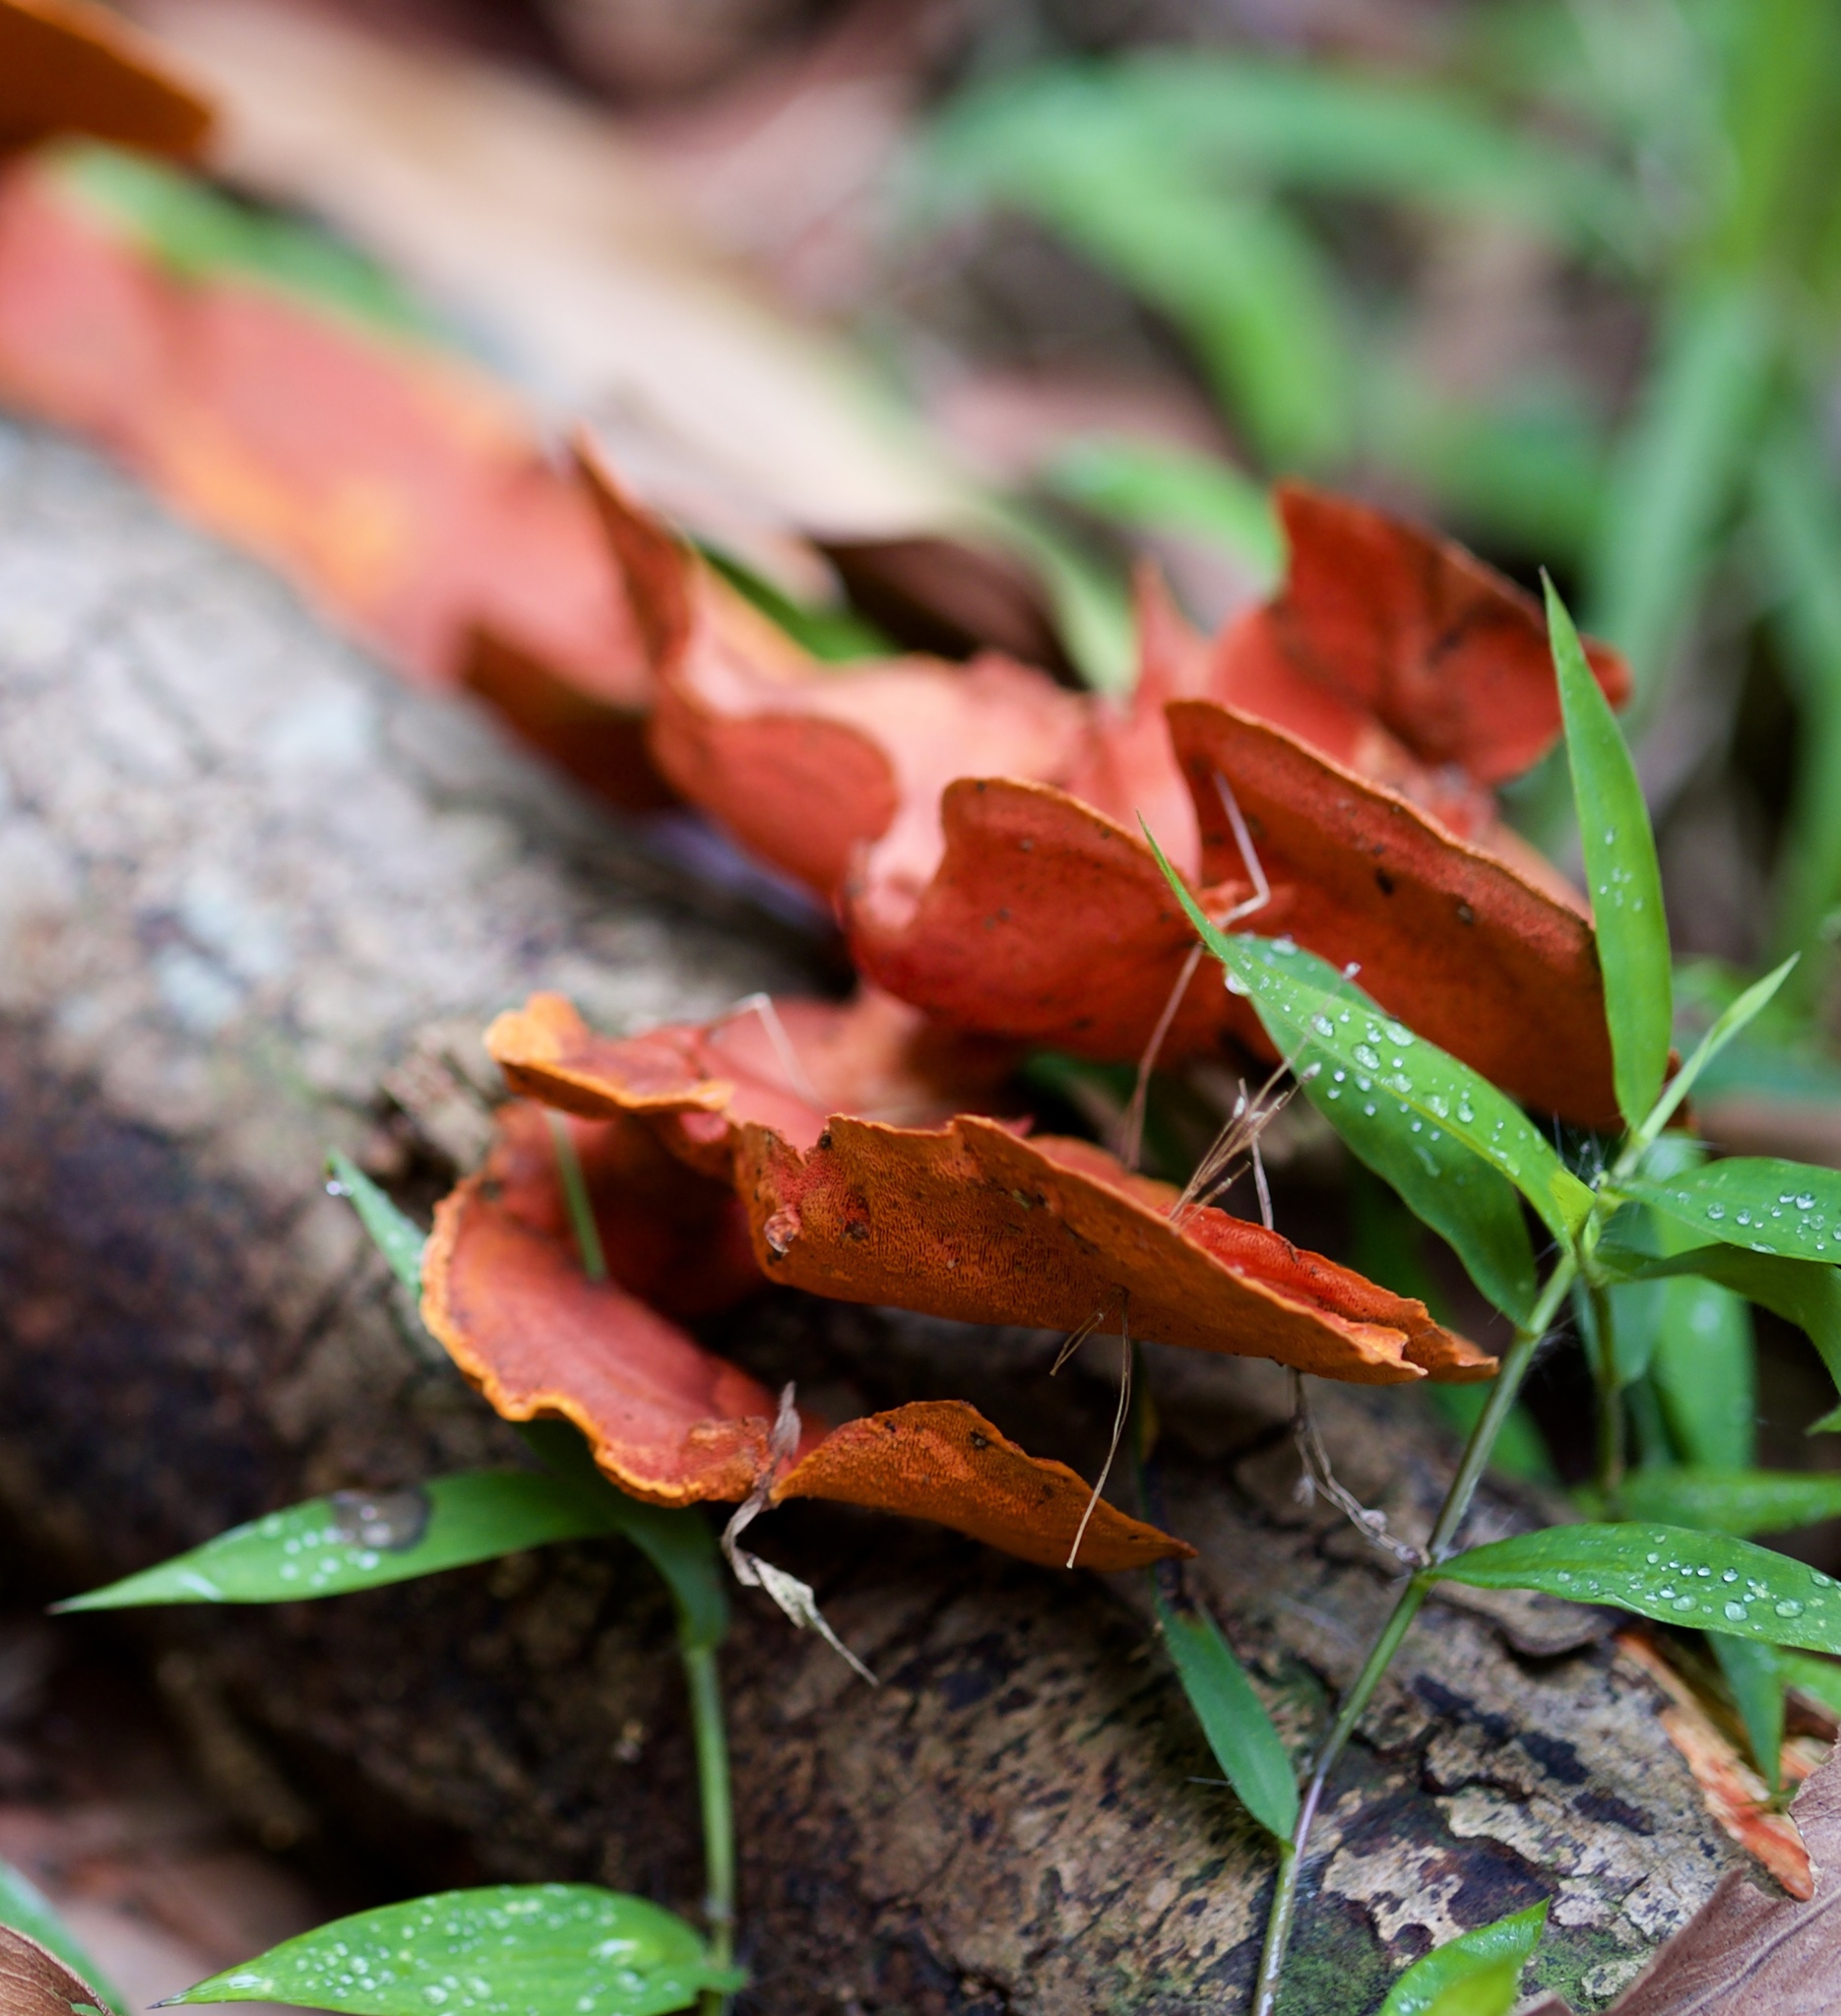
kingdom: Fungi
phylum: Basidiomycota
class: Agaricomycetes
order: Polyporales
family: Polyporaceae
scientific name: Polyporaceae
